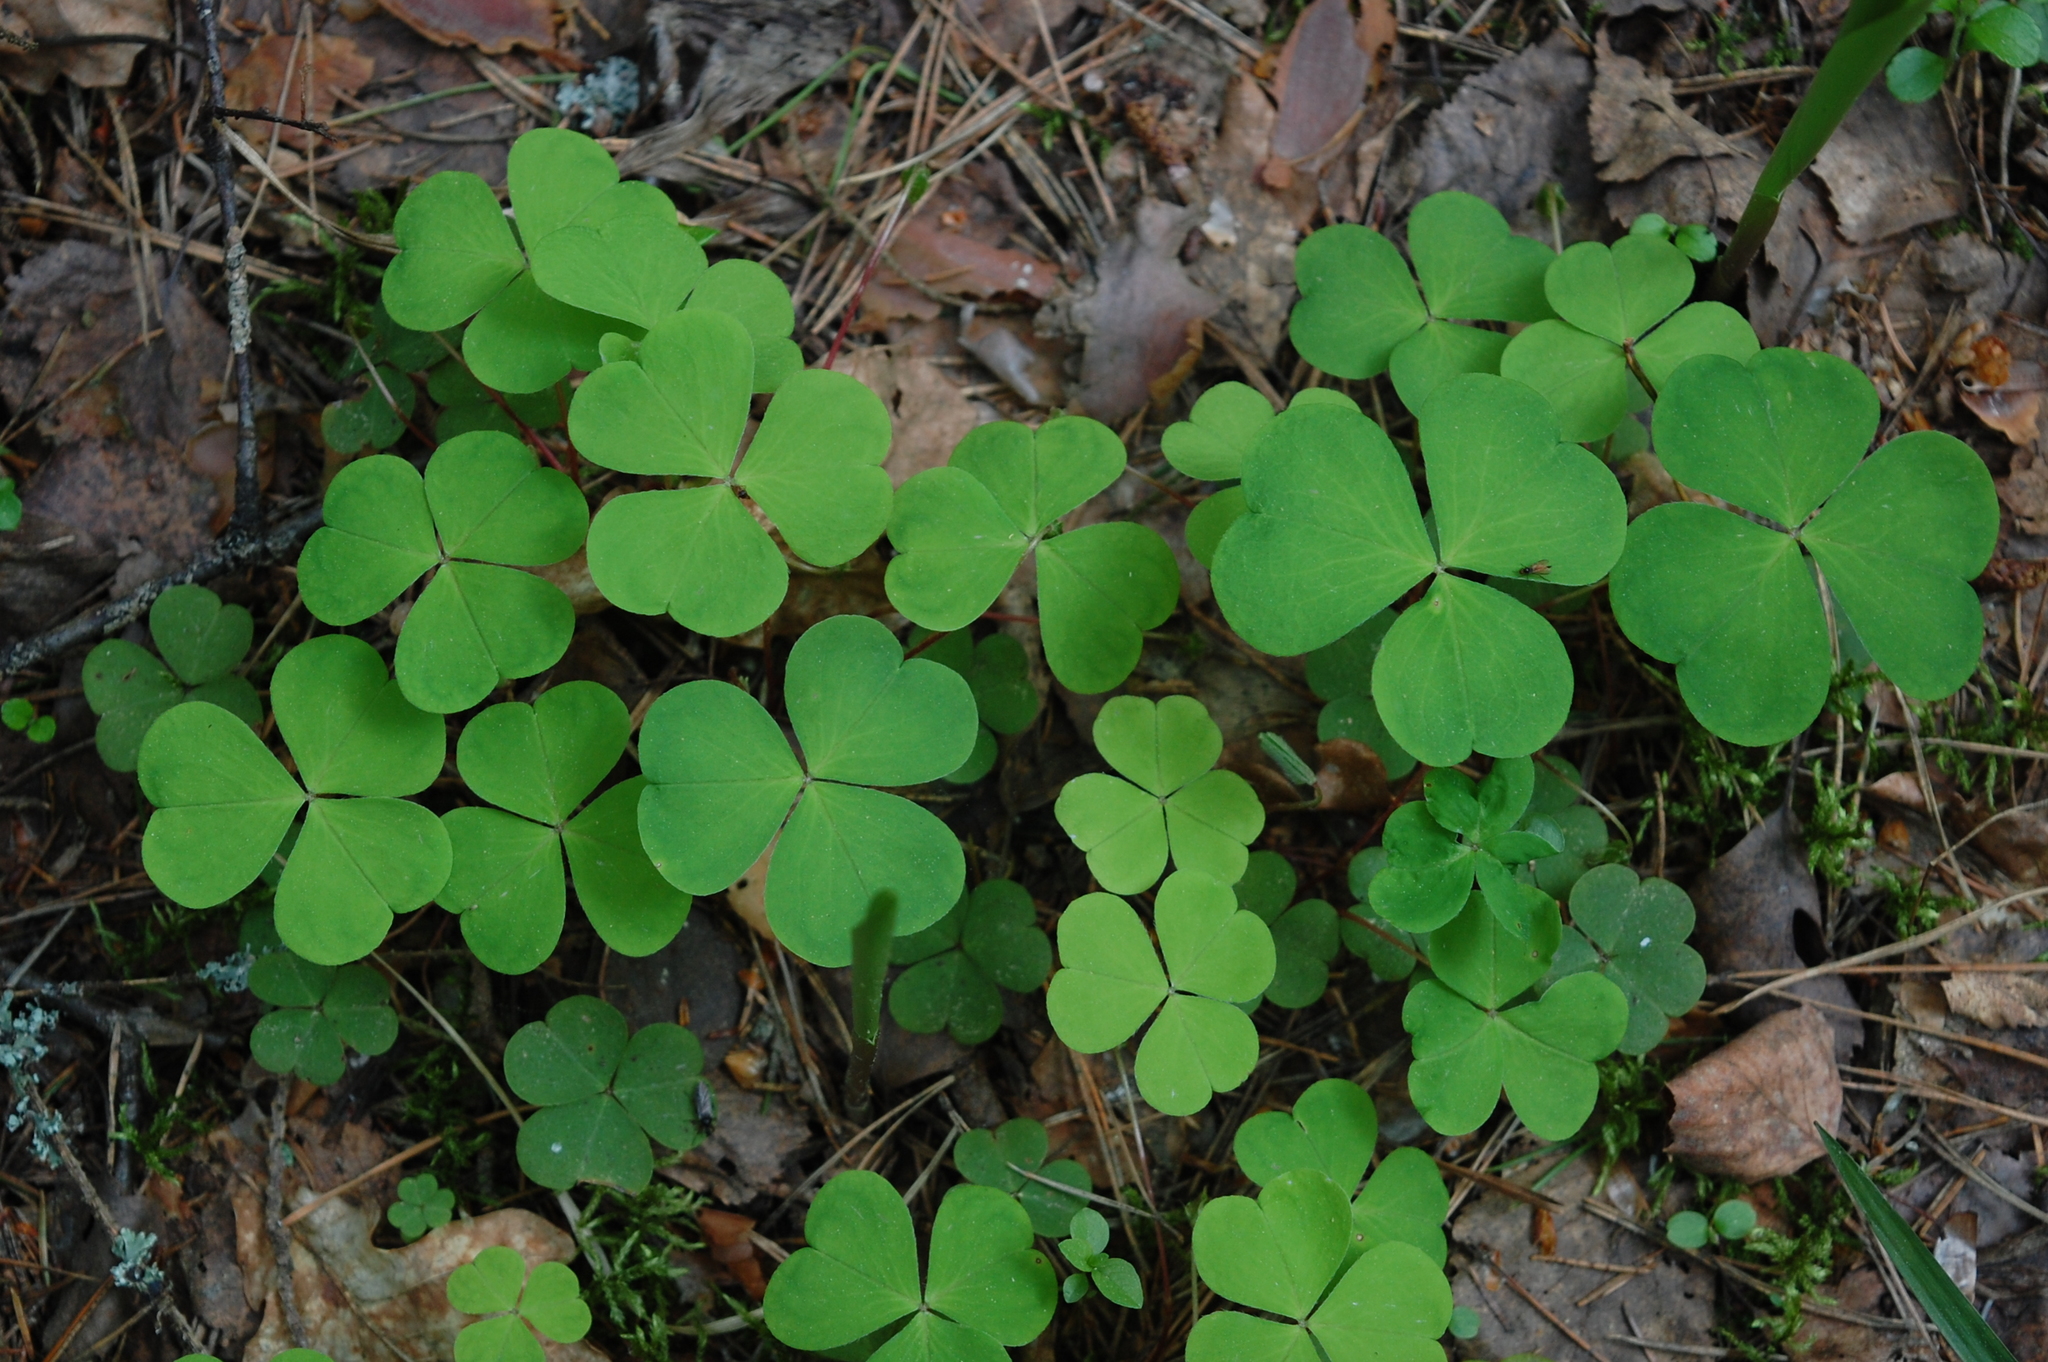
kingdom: Plantae
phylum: Tracheophyta
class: Magnoliopsida
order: Oxalidales
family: Oxalidaceae
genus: Oxalis
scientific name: Oxalis acetosella
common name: Wood-sorrel
